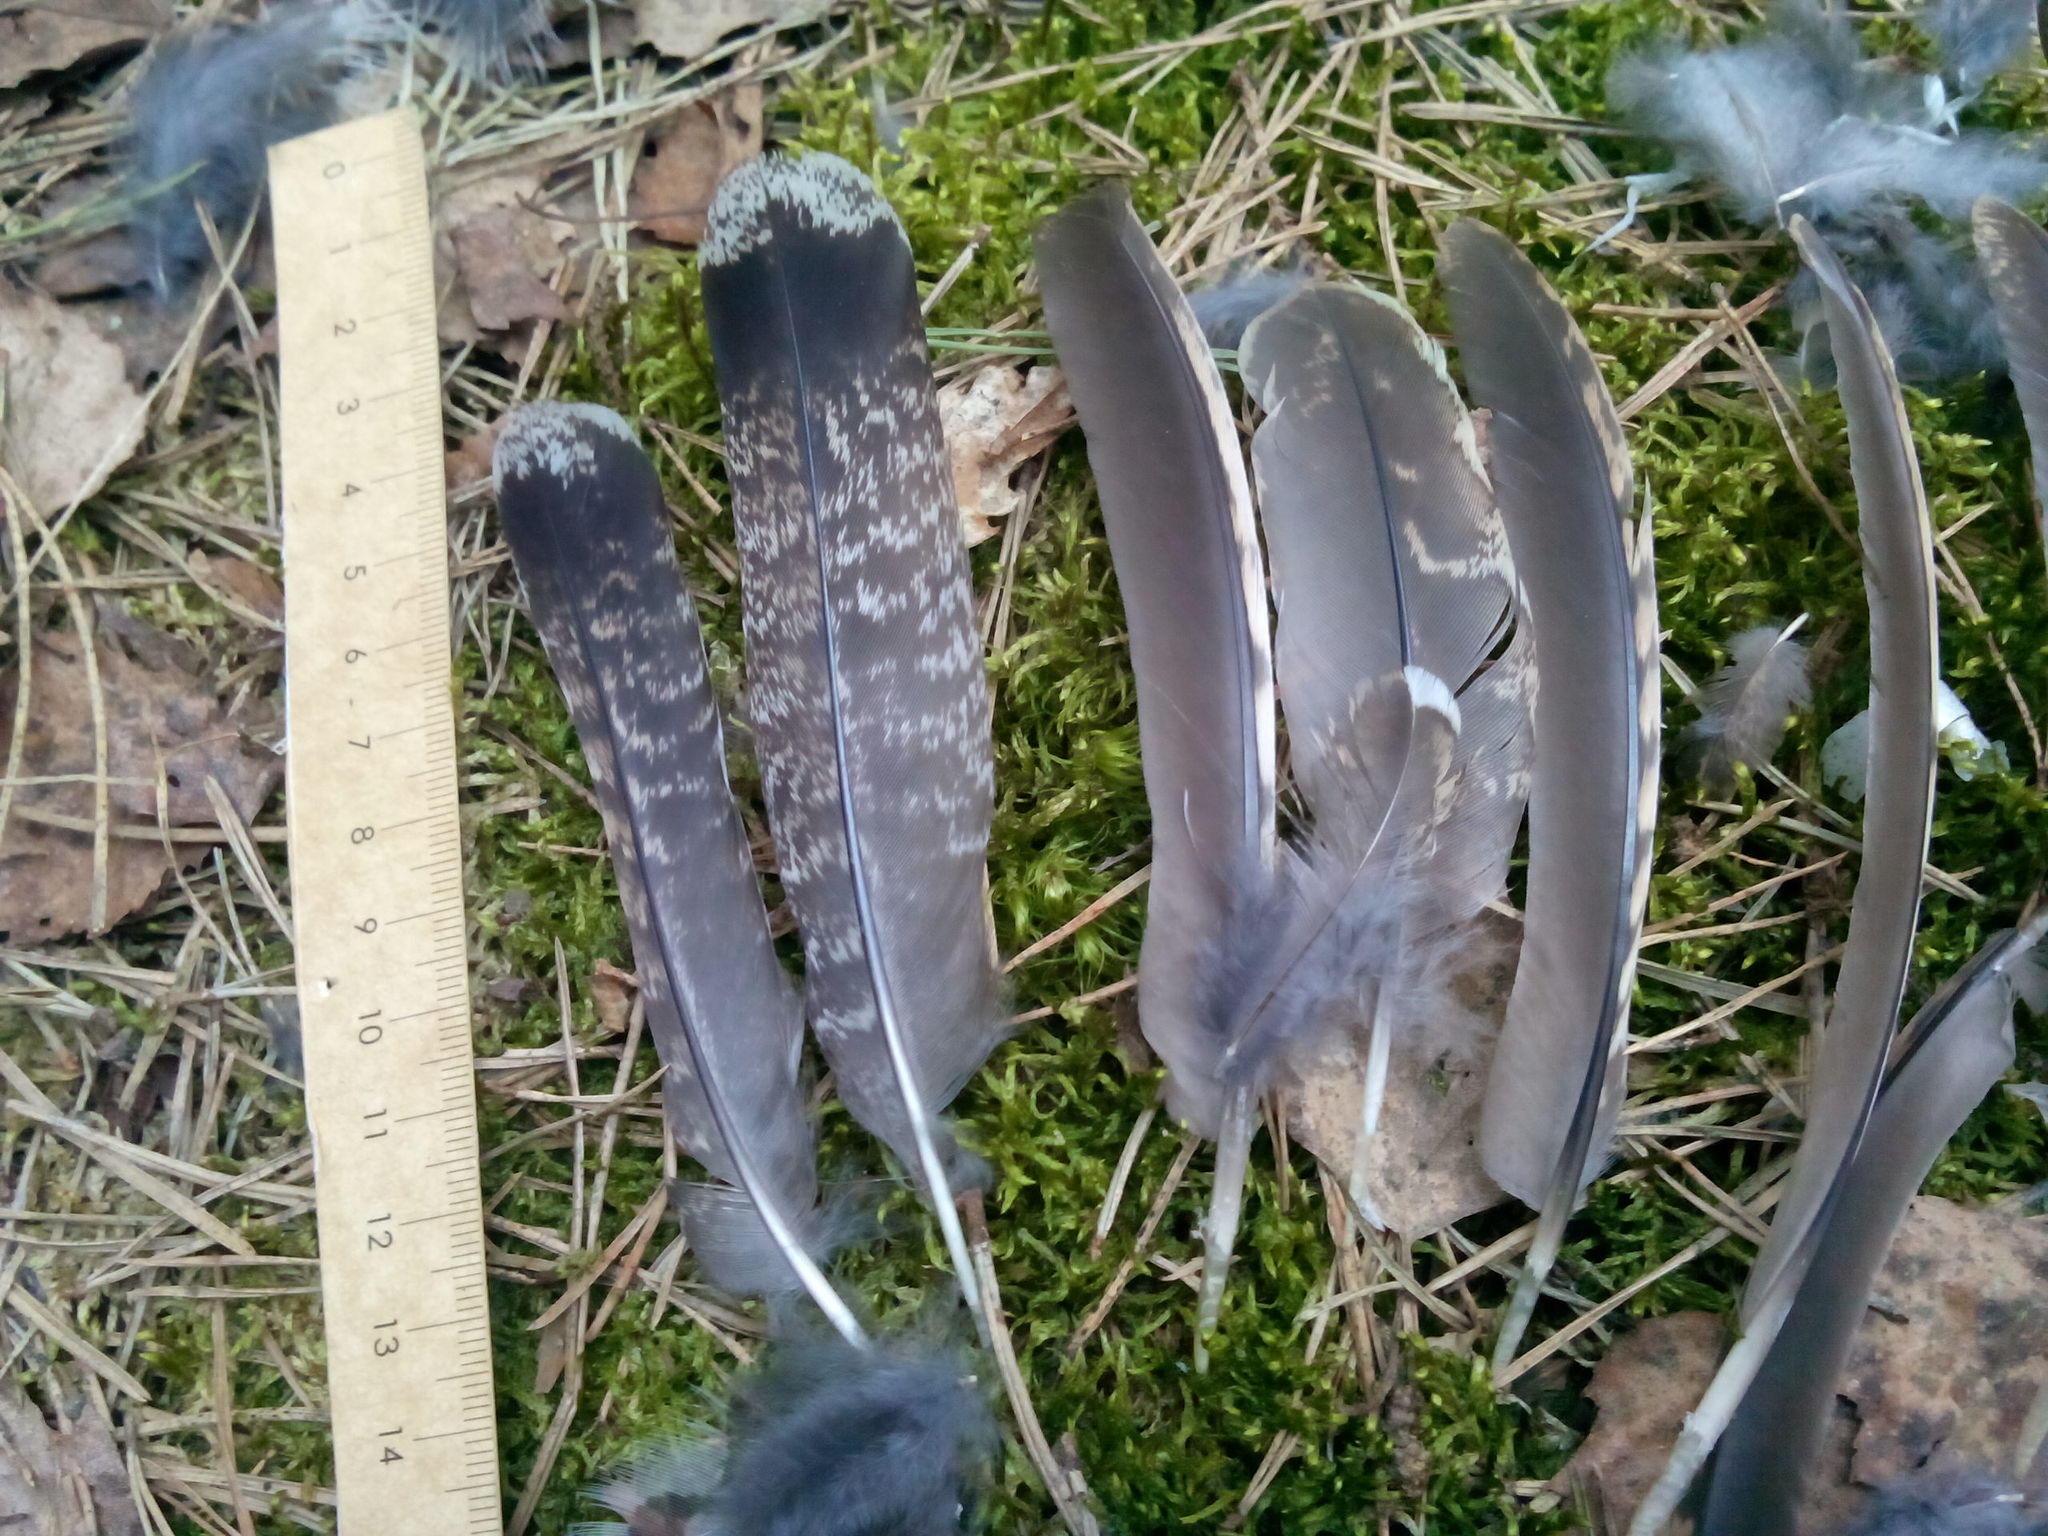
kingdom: Animalia
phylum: Chordata
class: Aves
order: Galliformes
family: Phasianidae
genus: Tetrastes
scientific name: Tetrastes bonasia
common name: Hazel grouse
